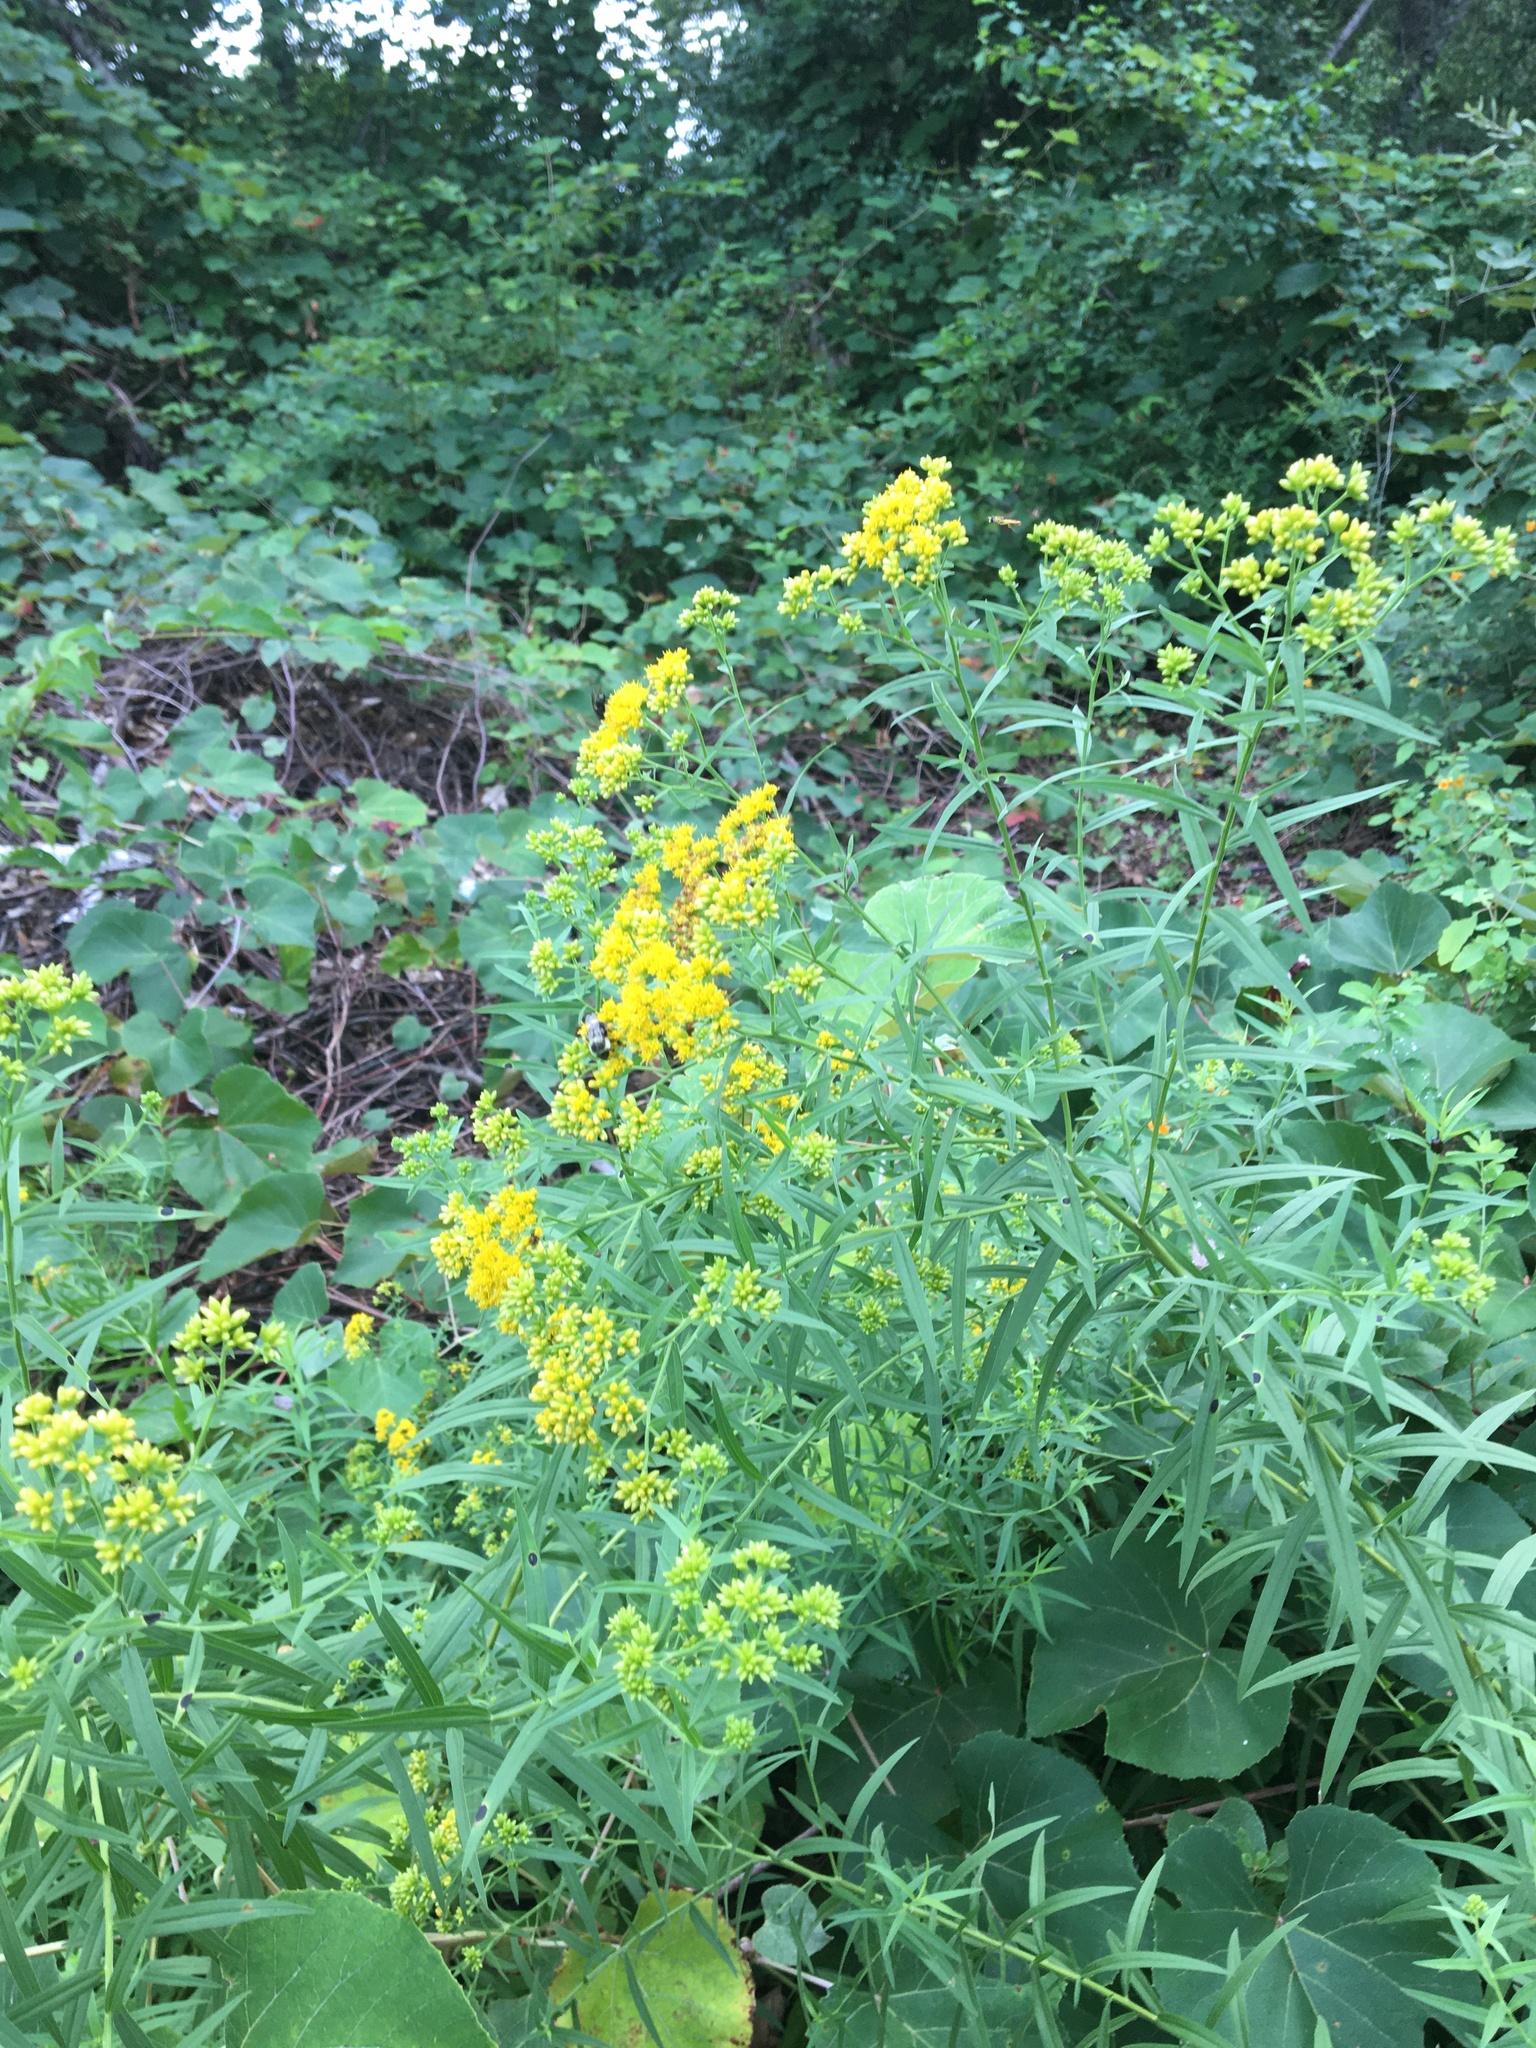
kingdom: Plantae
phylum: Tracheophyta
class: Magnoliopsida
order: Asterales
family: Asteraceae
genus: Euthamia
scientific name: Euthamia graminifolia
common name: Common goldentop
